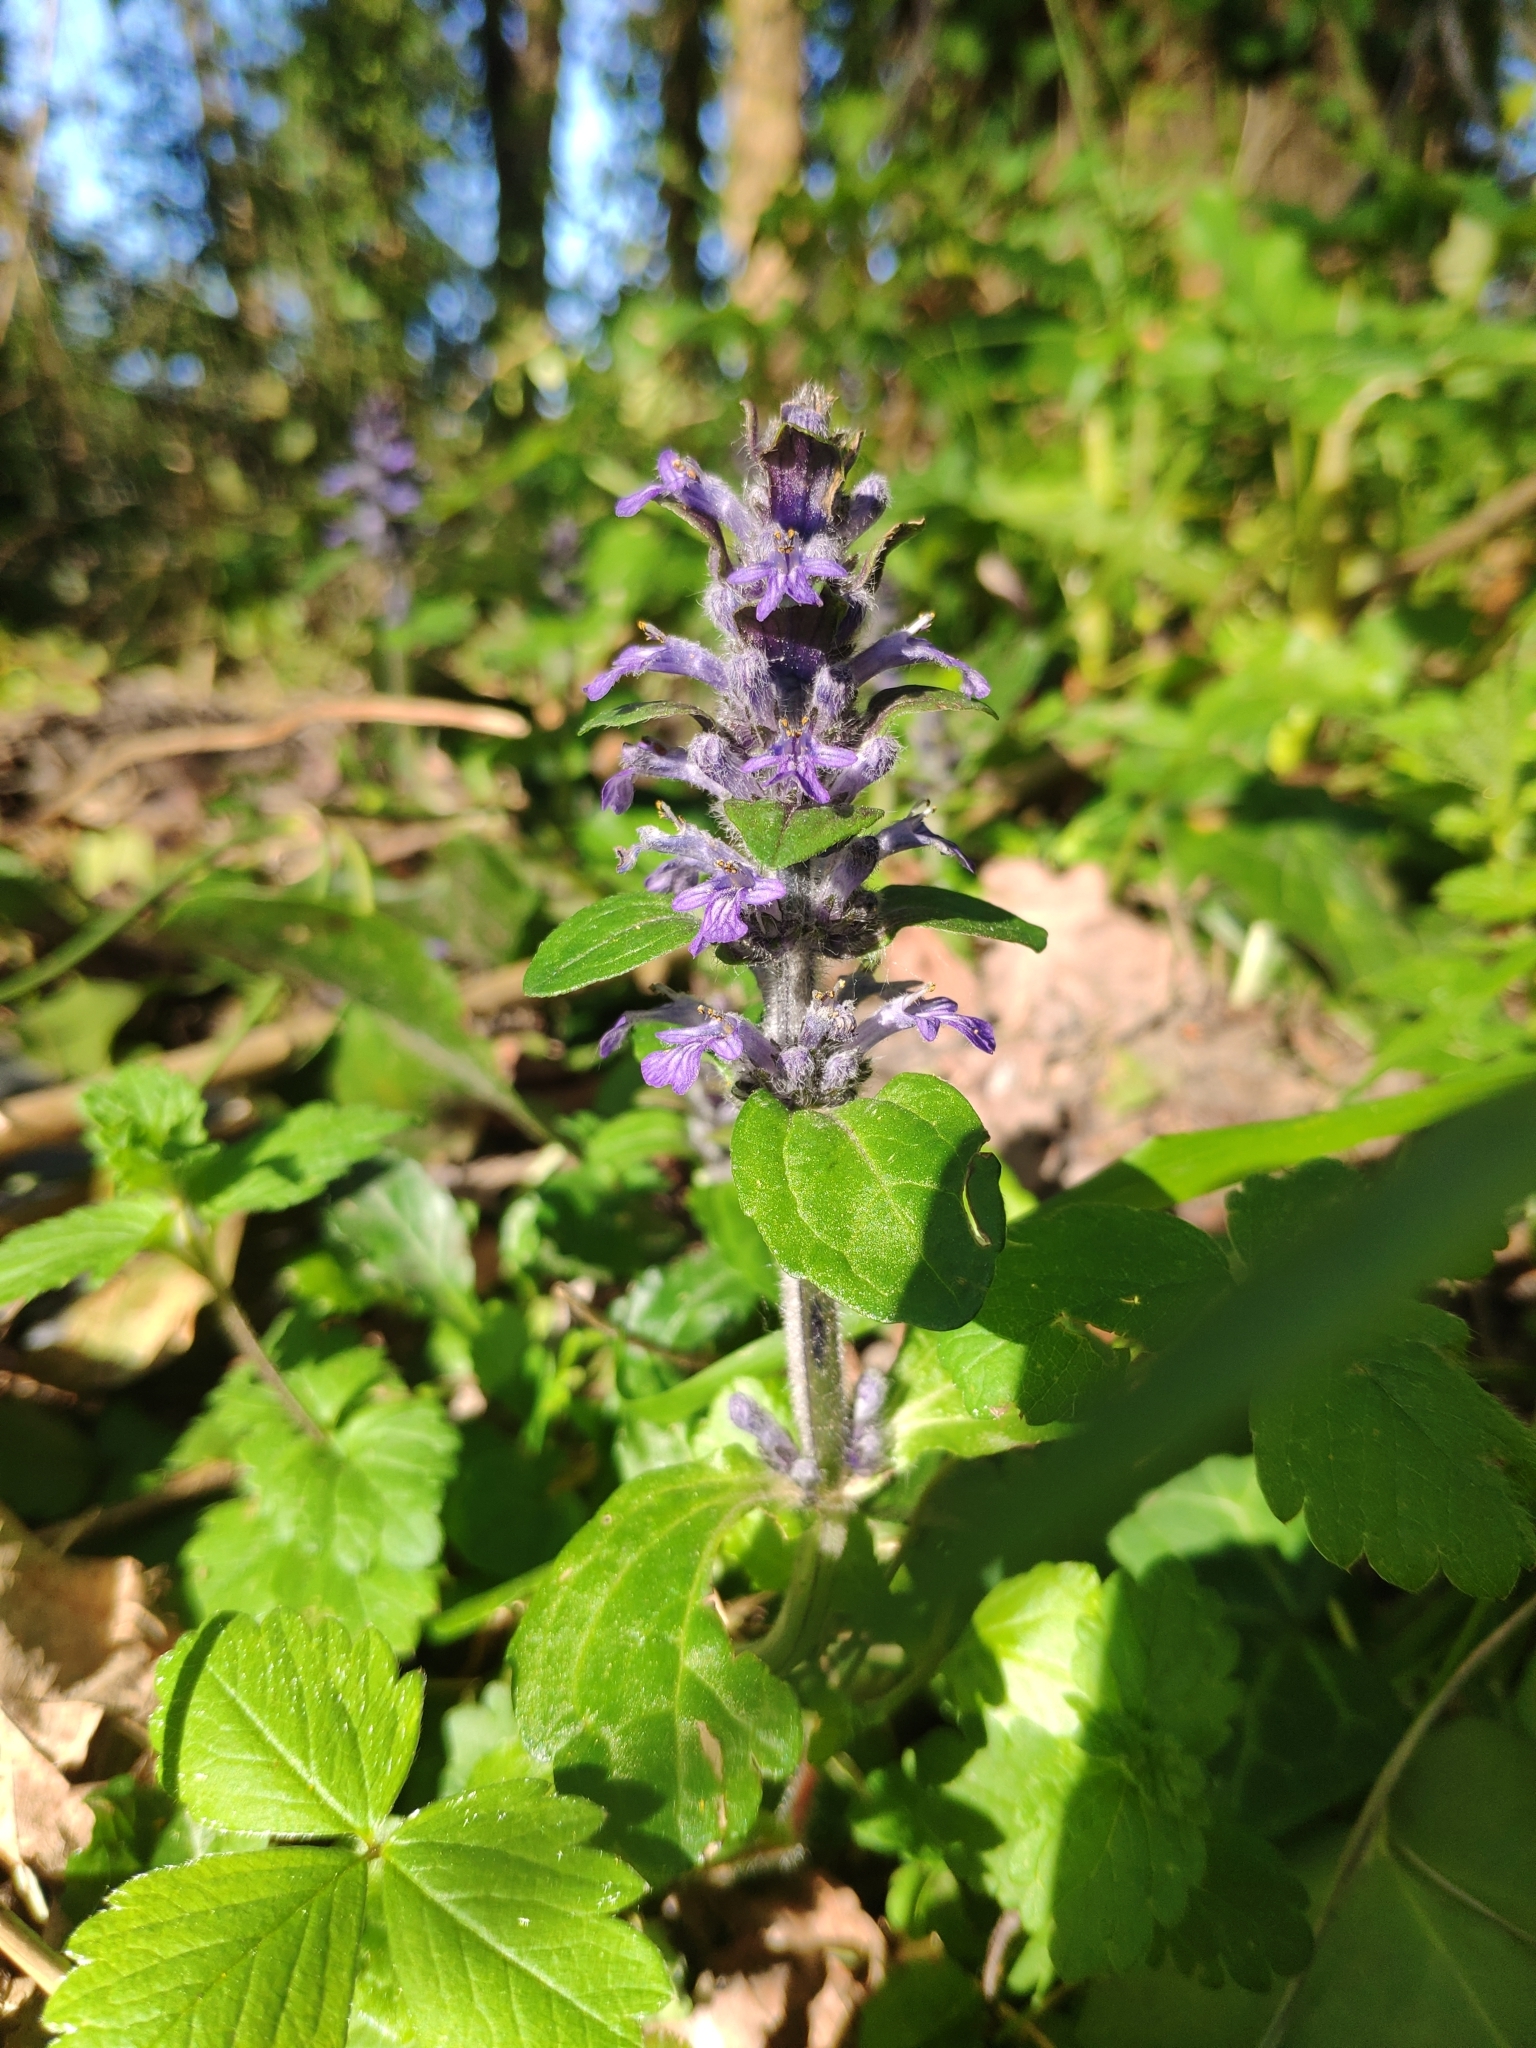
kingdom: Plantae
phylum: Tracheophyta
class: Magnoliopsida
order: Lamiales
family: Lamiaceae
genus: Ajuga
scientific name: Ajuga reptans
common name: Bugle
